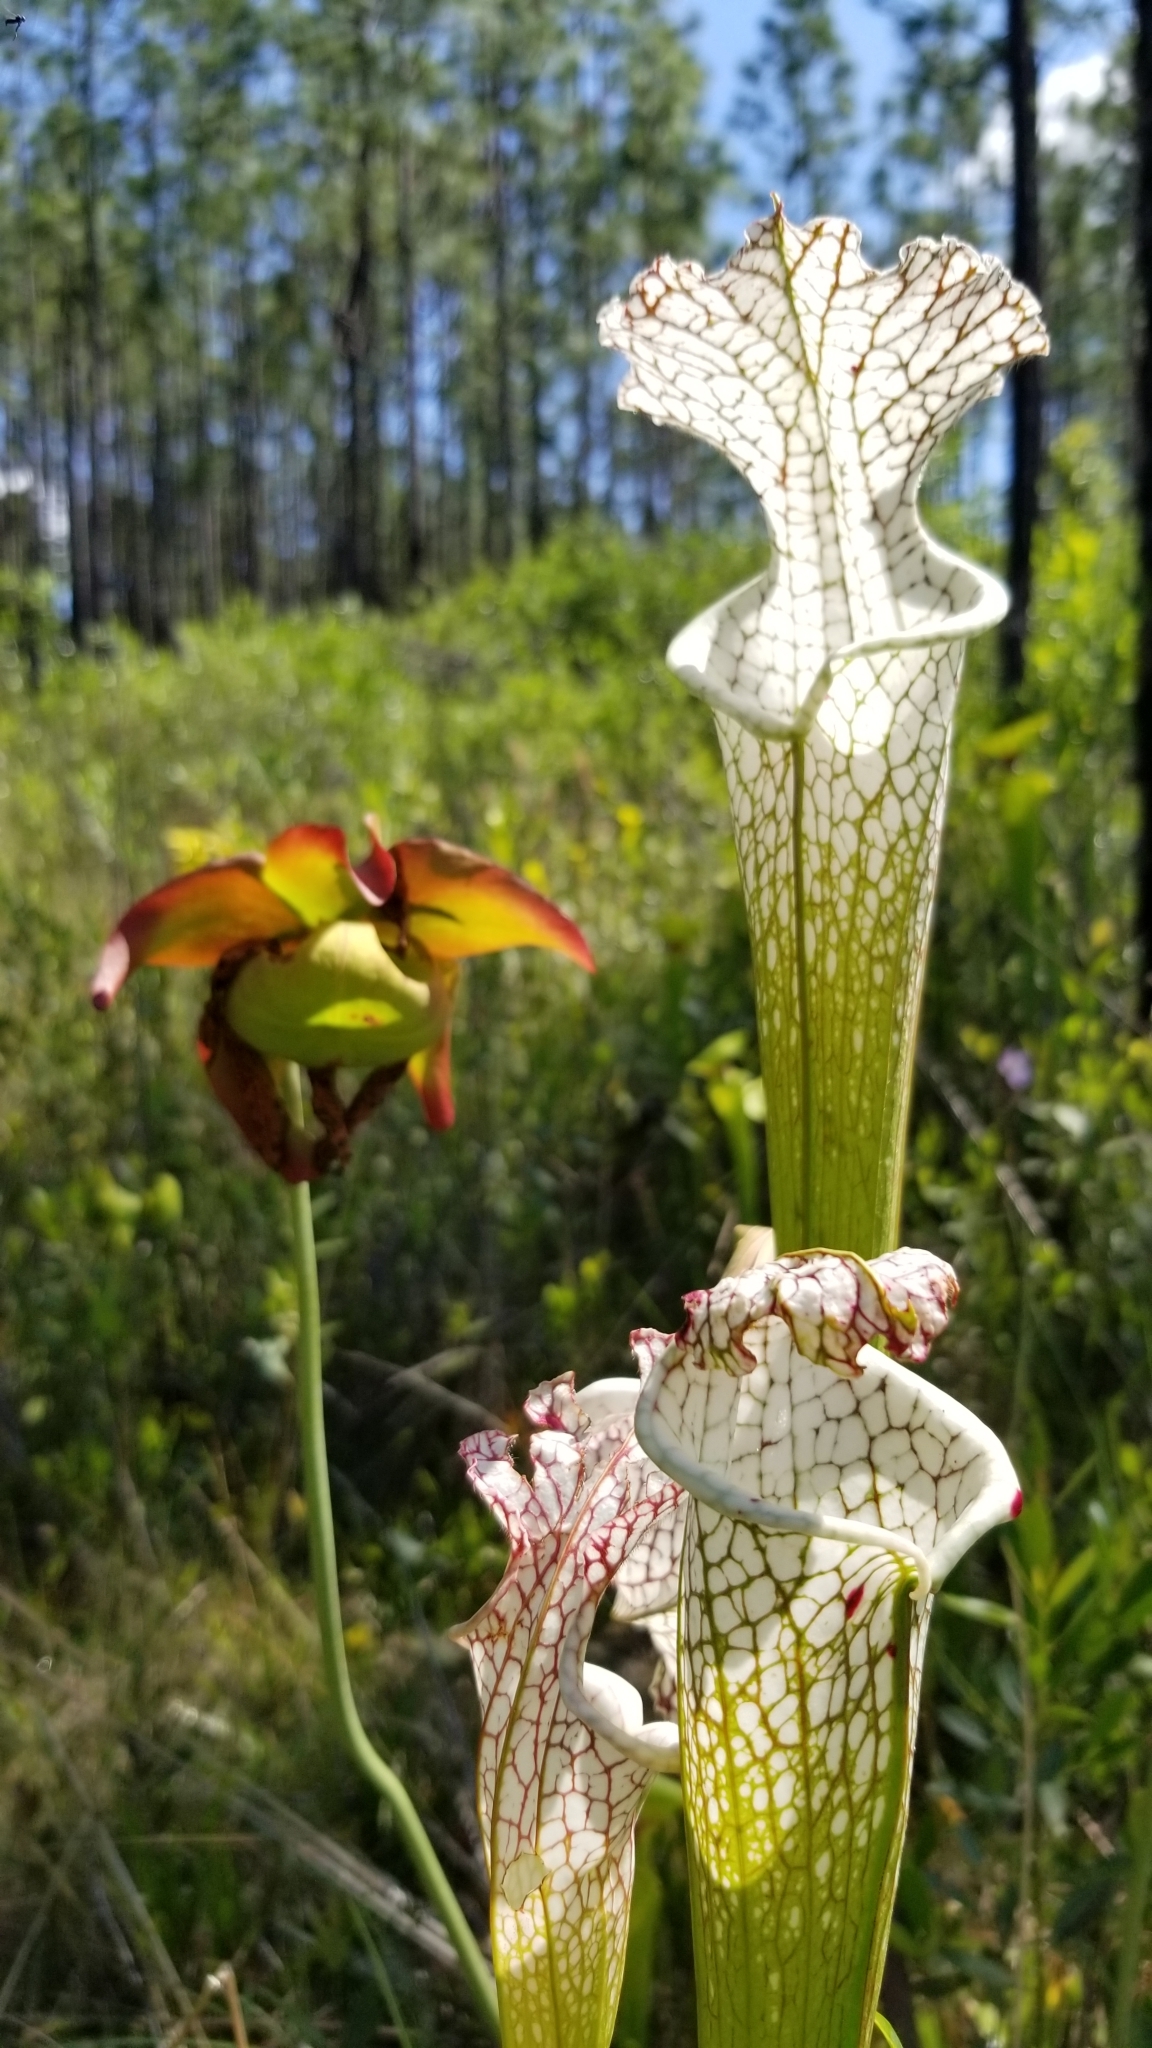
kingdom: Plantae
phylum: Tracheophyta
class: Magnoliopsida
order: Ericales
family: Sarraceniaceae
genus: Sarracenia
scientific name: Sarracenia leucophylla
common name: Purple trumpetleaf
